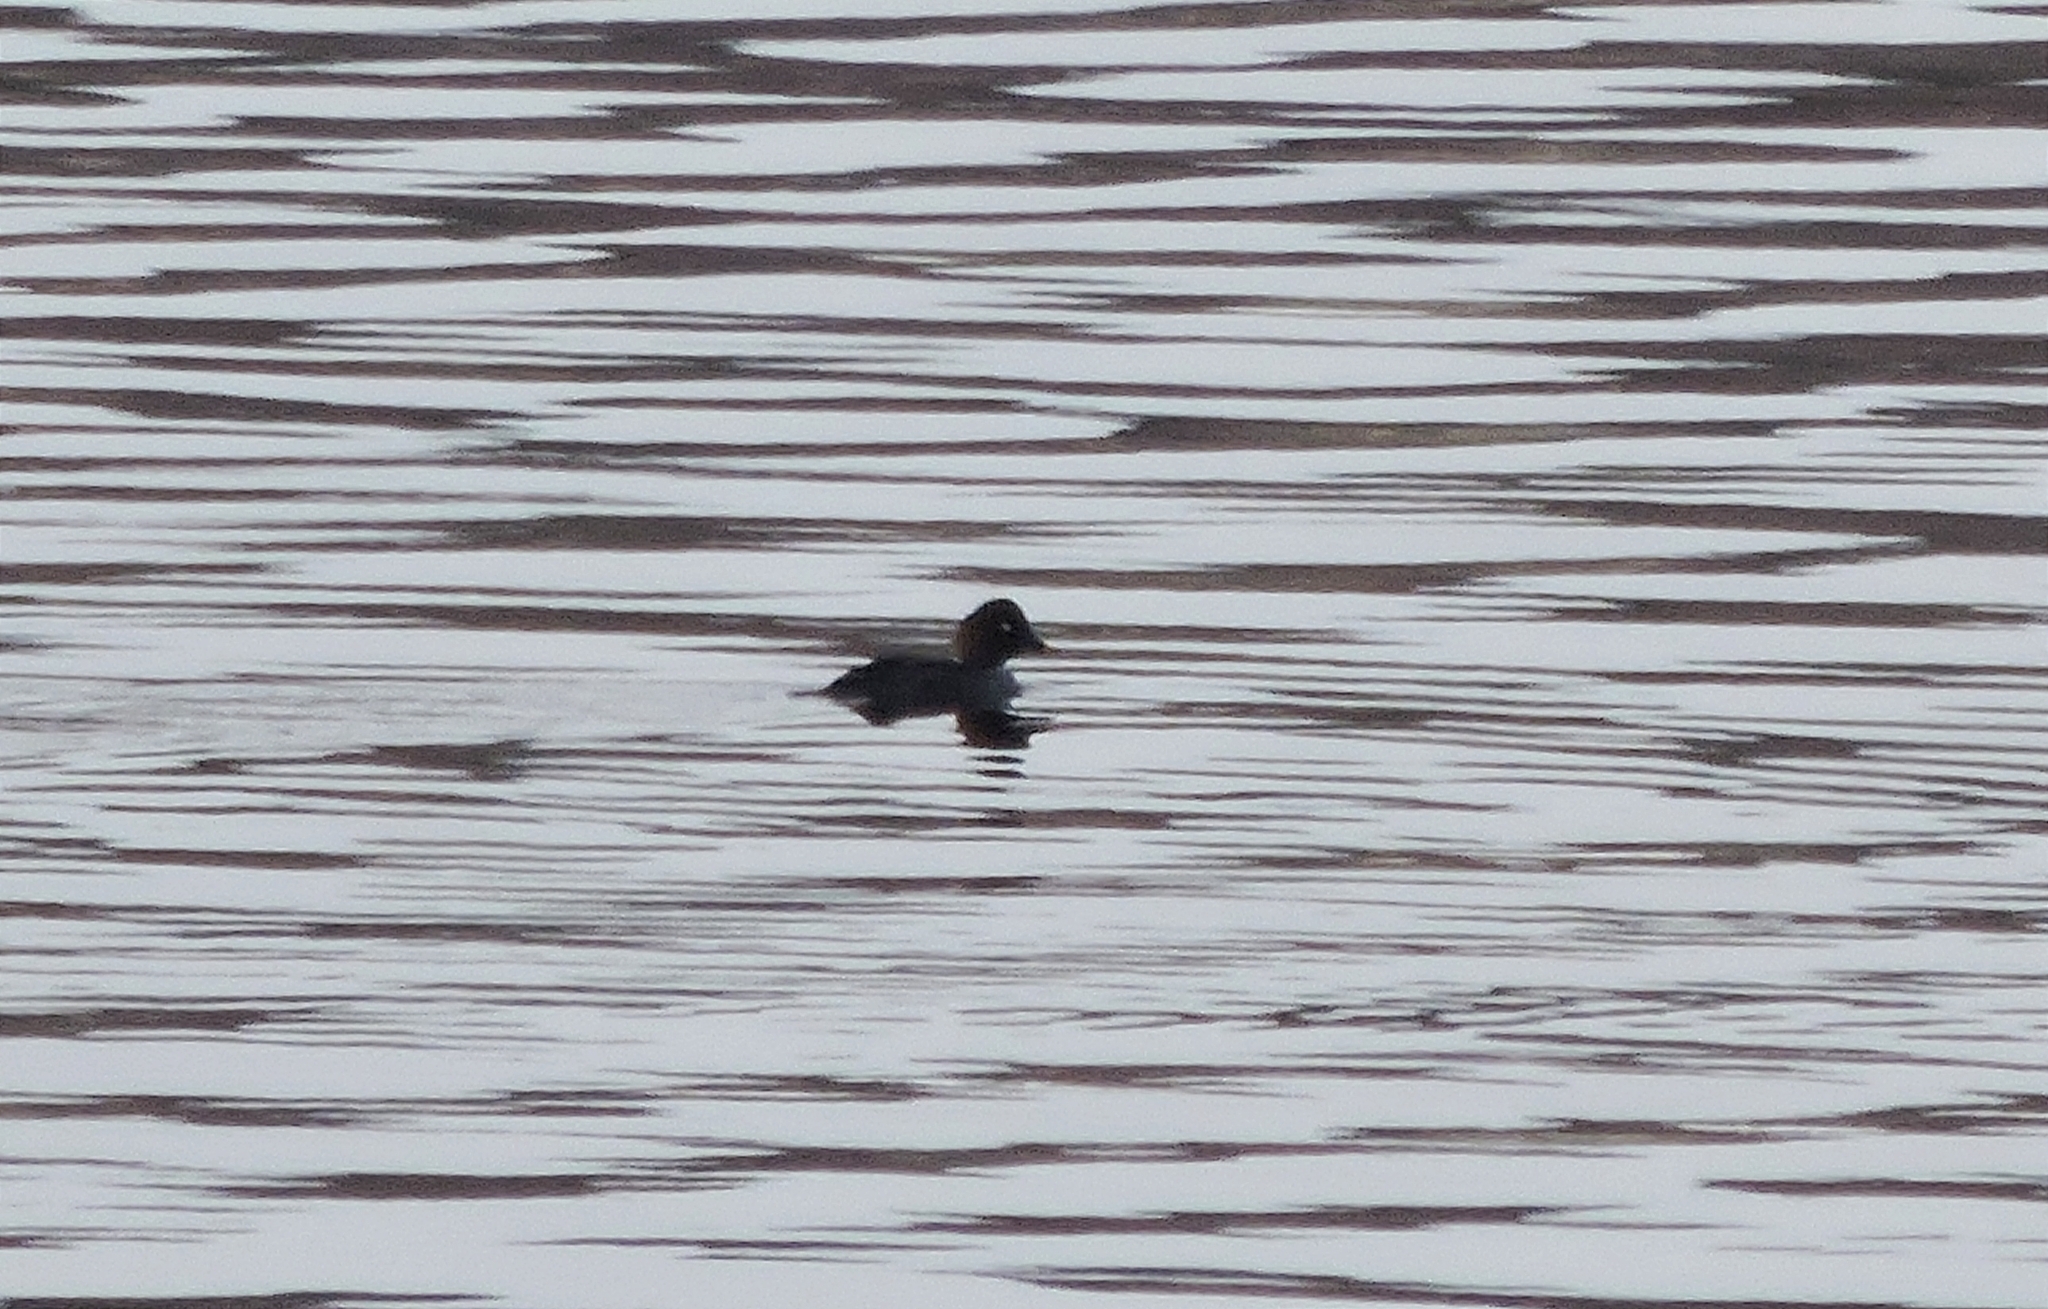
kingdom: Animalia
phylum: Chordata
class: Aves
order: Anseriformes
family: Anatidae
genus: Bucephala
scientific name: Bucephala clangula
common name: Common goldeneye
